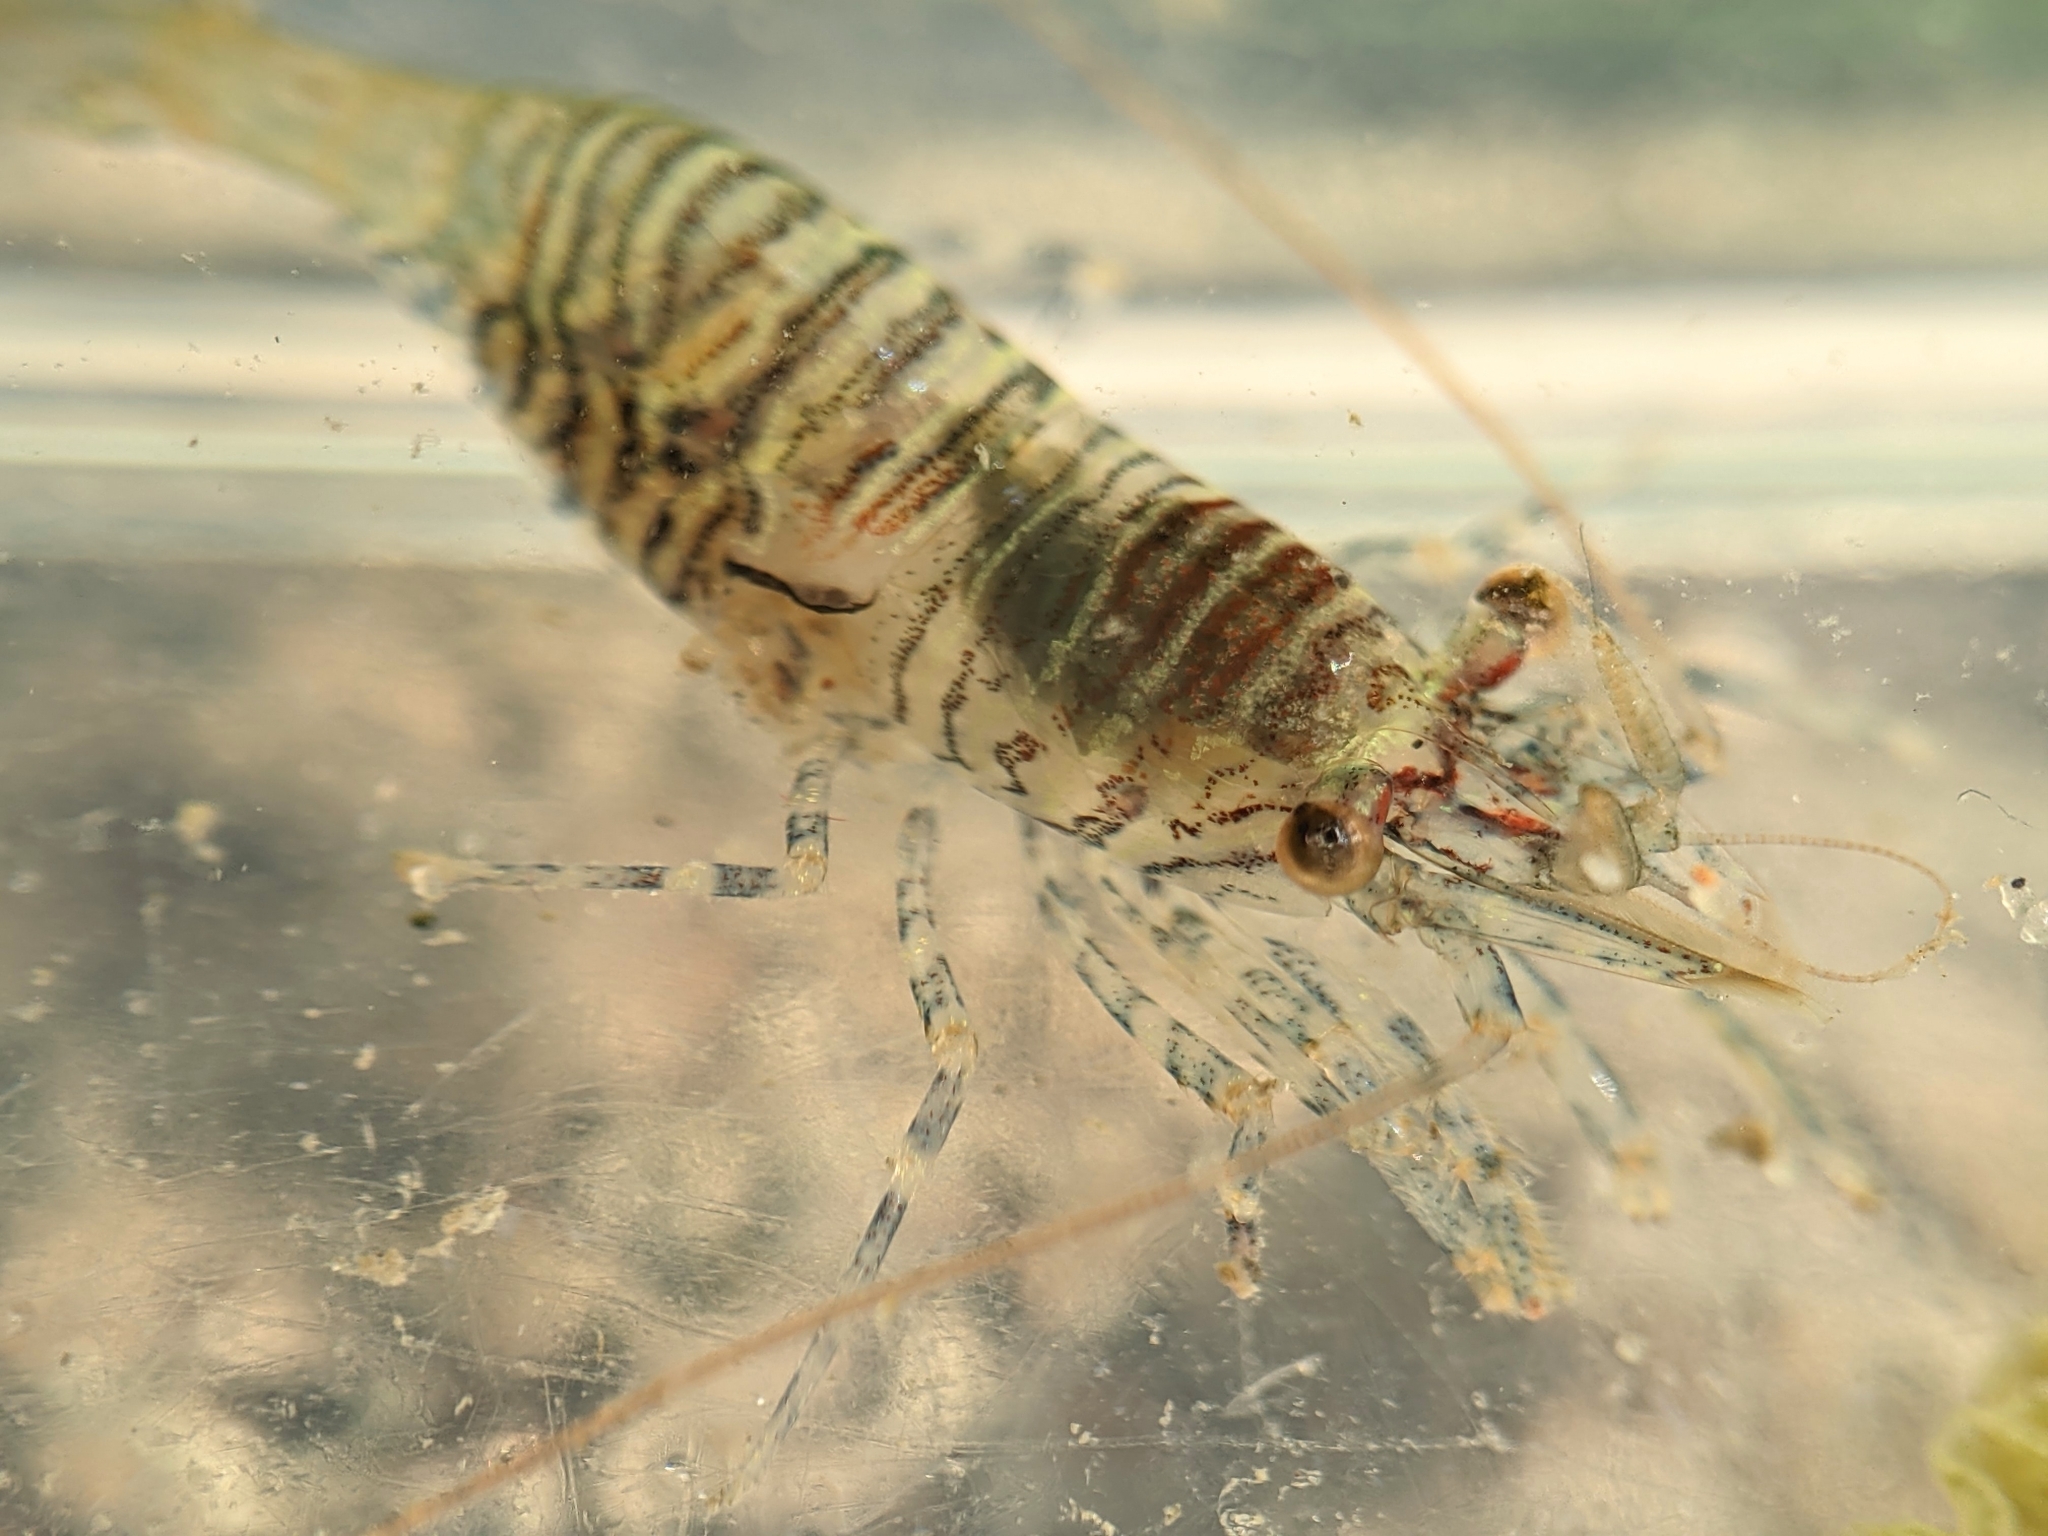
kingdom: Animalia
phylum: Arthropoda
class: Malacostraca
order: Decapoda
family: Thoridae
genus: Heptacarpus
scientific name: Heptacarpus pugettensis
